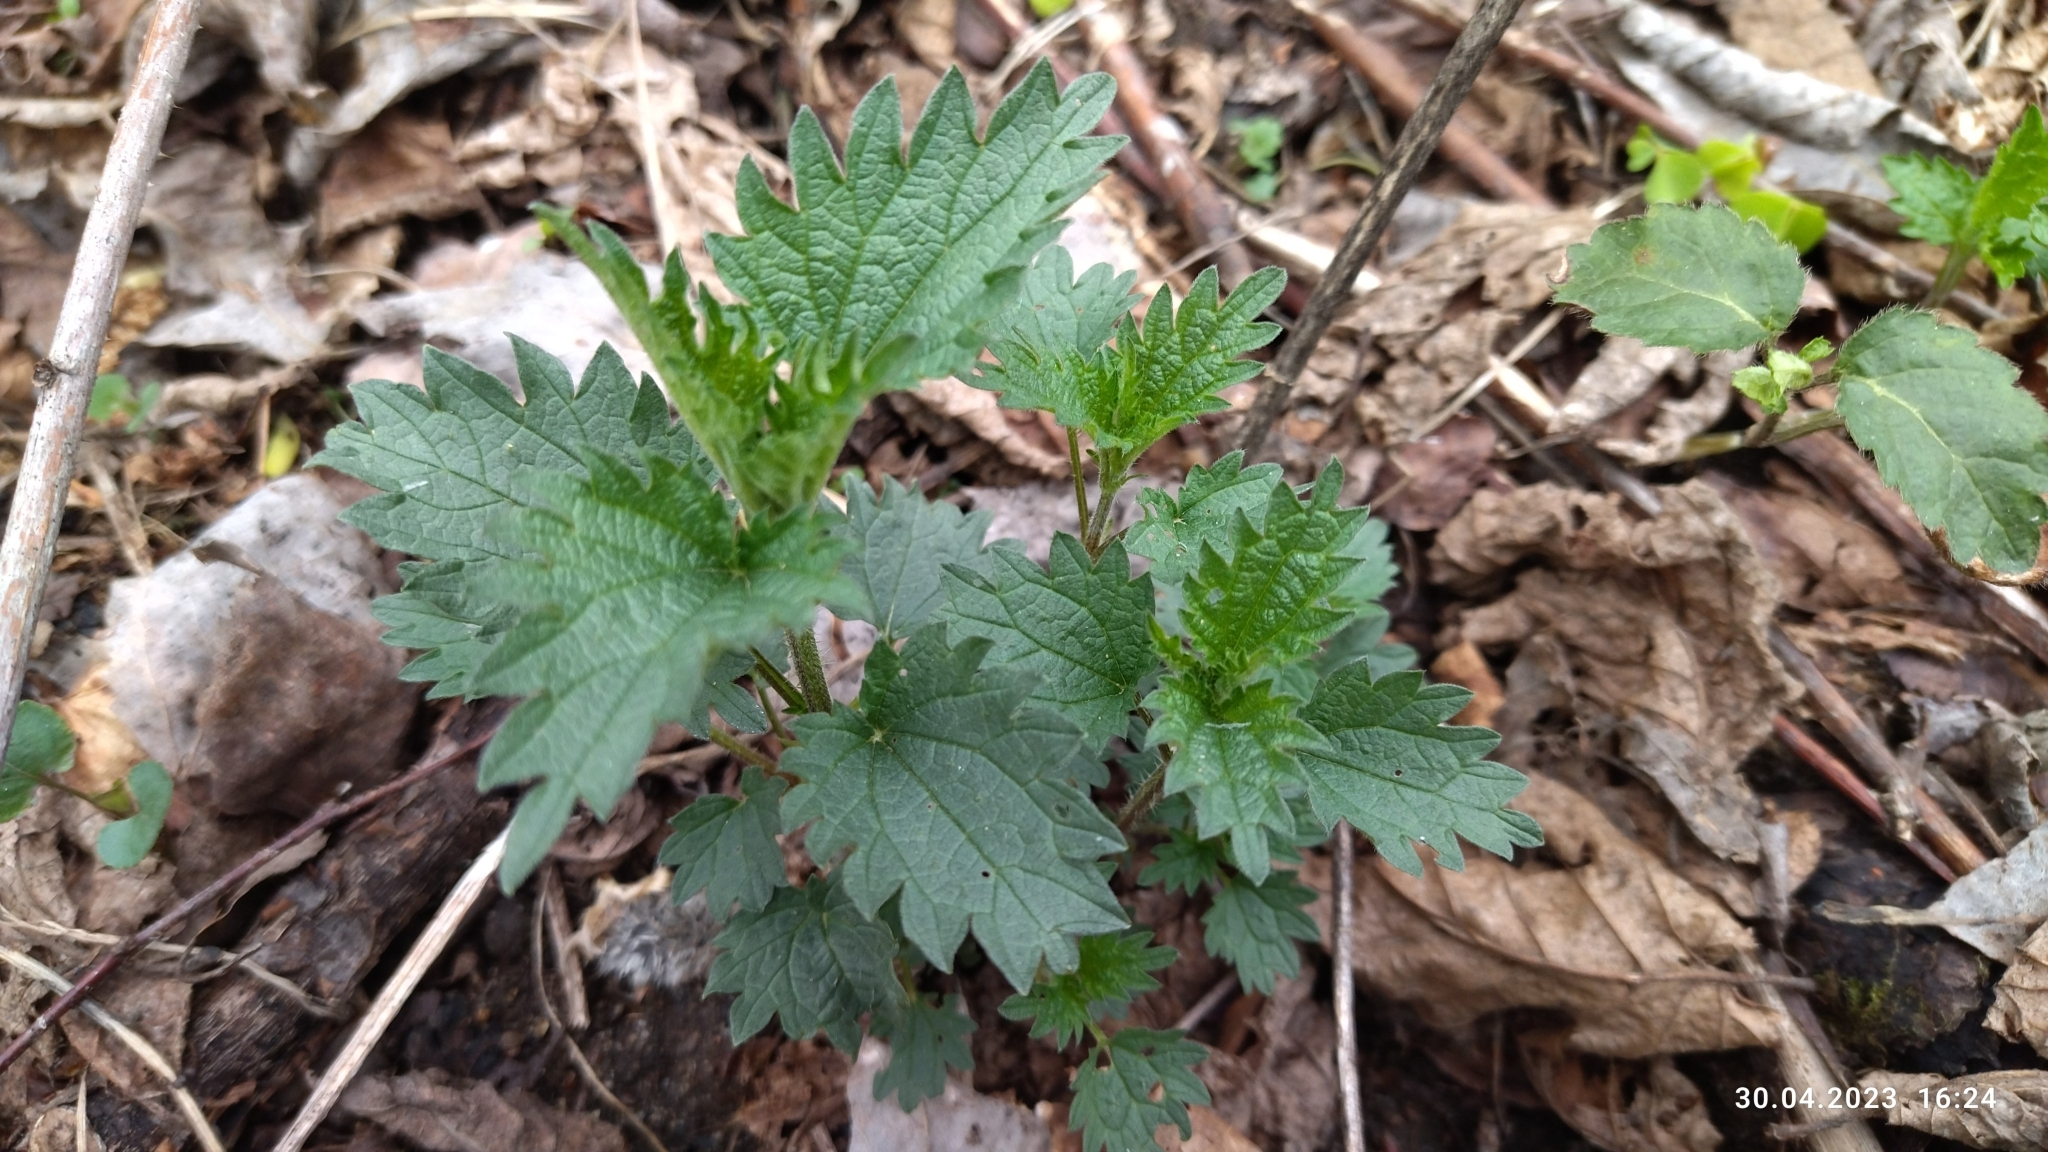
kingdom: Plantae
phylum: Tracheophyta
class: Magnoliopsida
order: Rosales
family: Urticaceae
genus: Urtica
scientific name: Urtica dioica
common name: Common nettle
